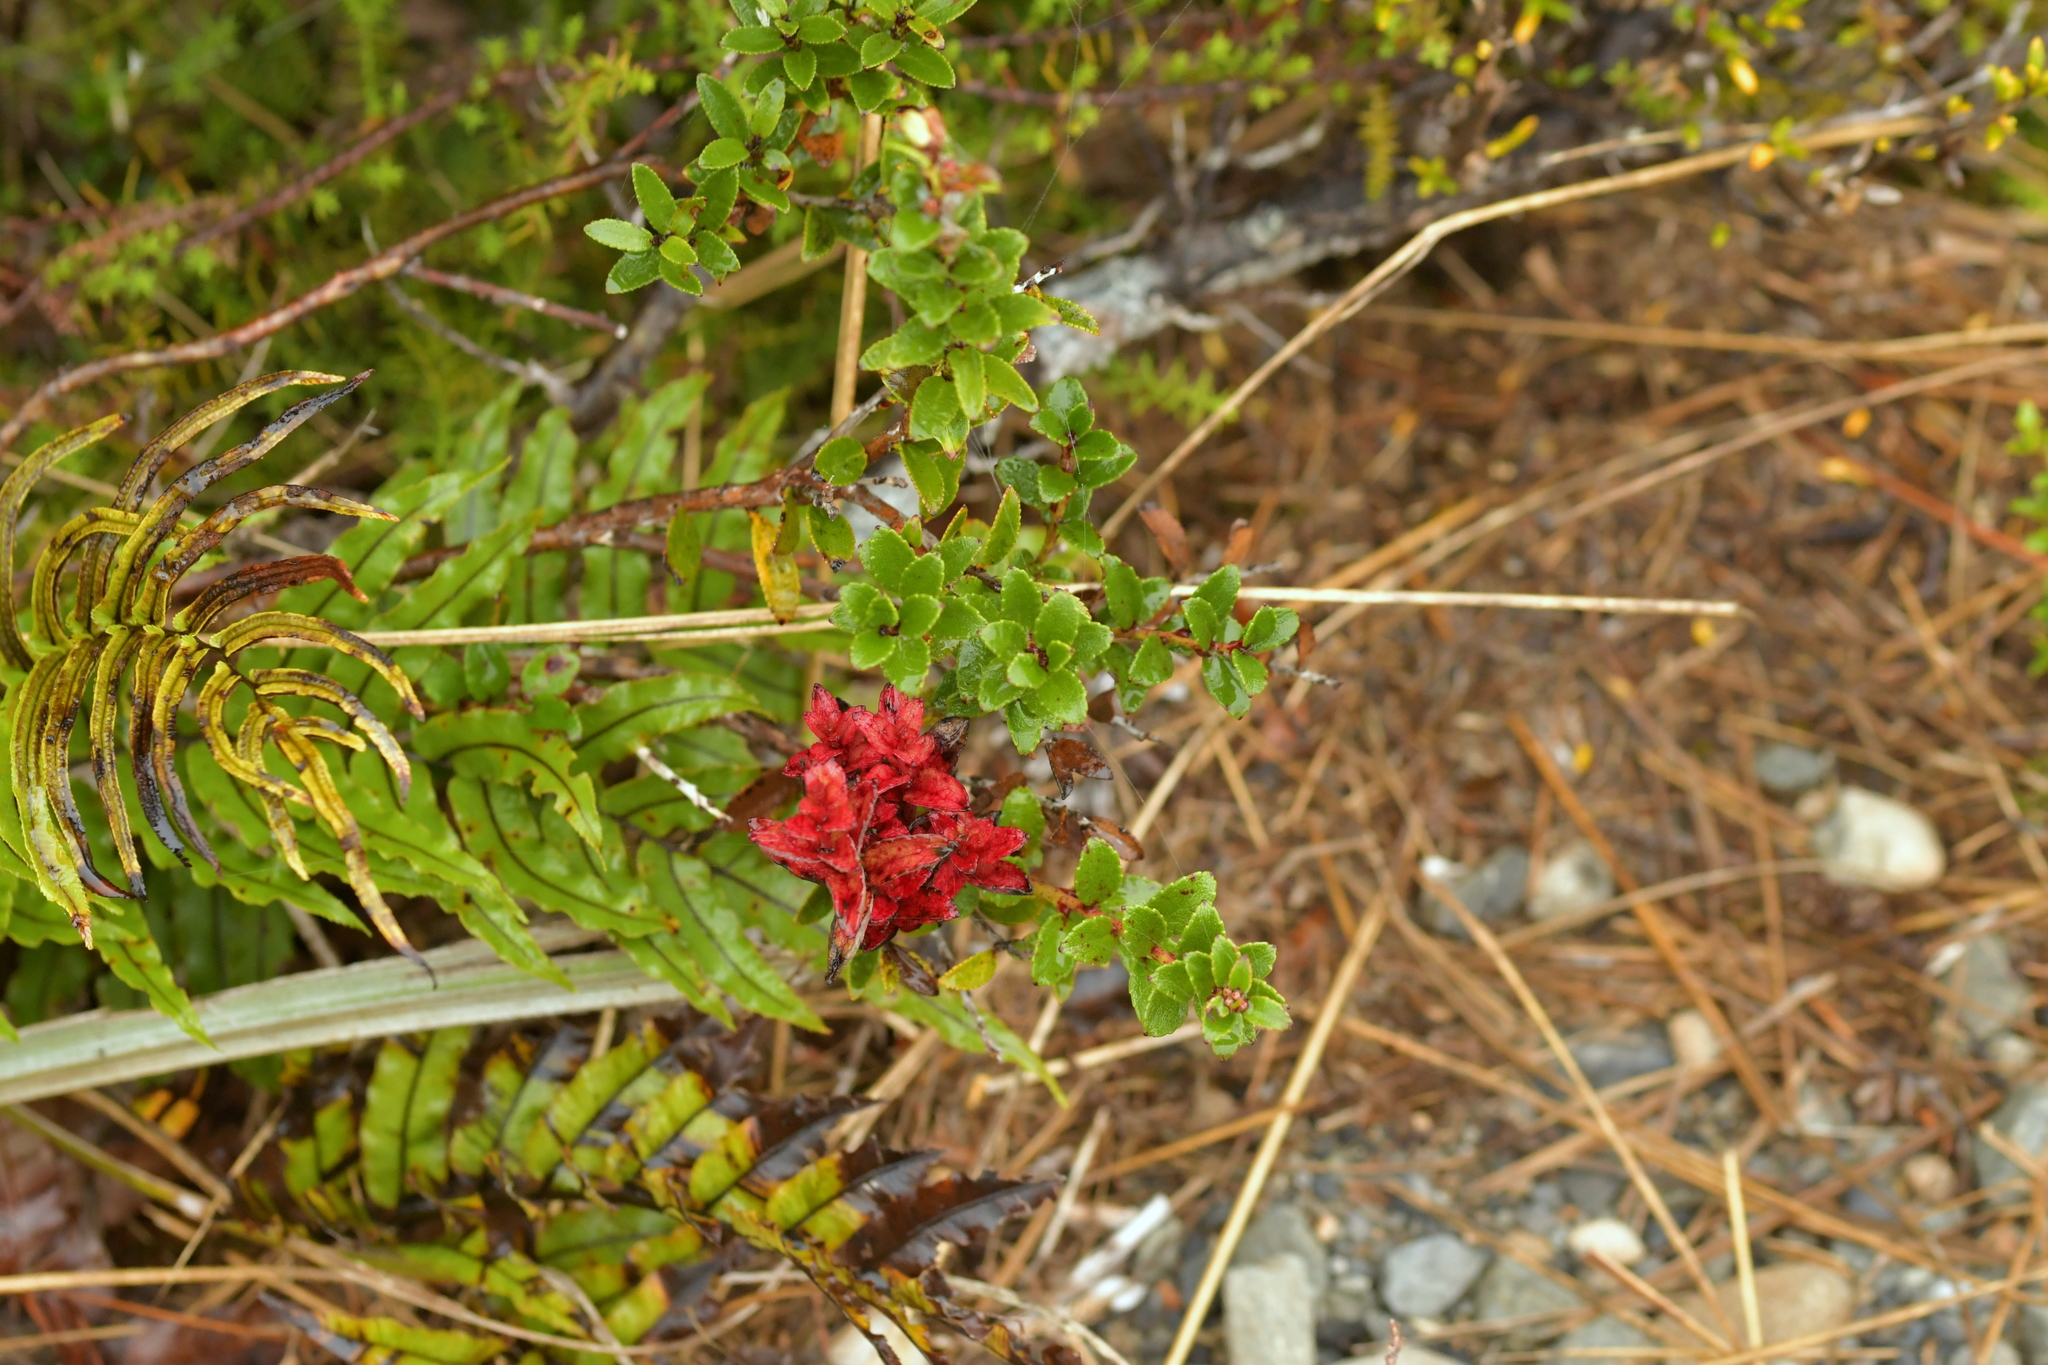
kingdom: Plantae
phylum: Tracheophyta
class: Magnoliopsida
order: Ericales
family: Ericaceae
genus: Gaultheria
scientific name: Gaultheria crassa
